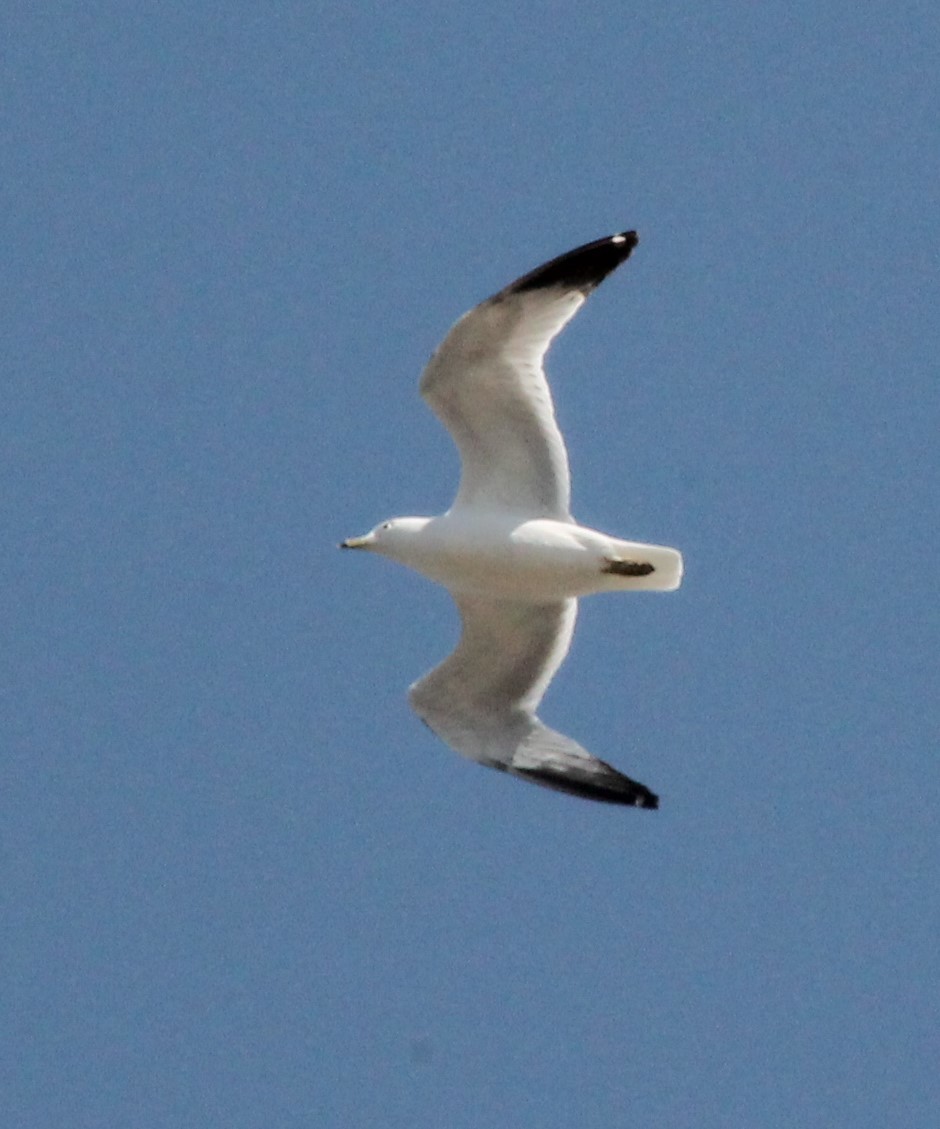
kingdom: Animalia
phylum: Chordata
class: Aves
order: Charadriiformes
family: Laridae
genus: Larus
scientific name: Larus delawarensis
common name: Ring-billed gull
